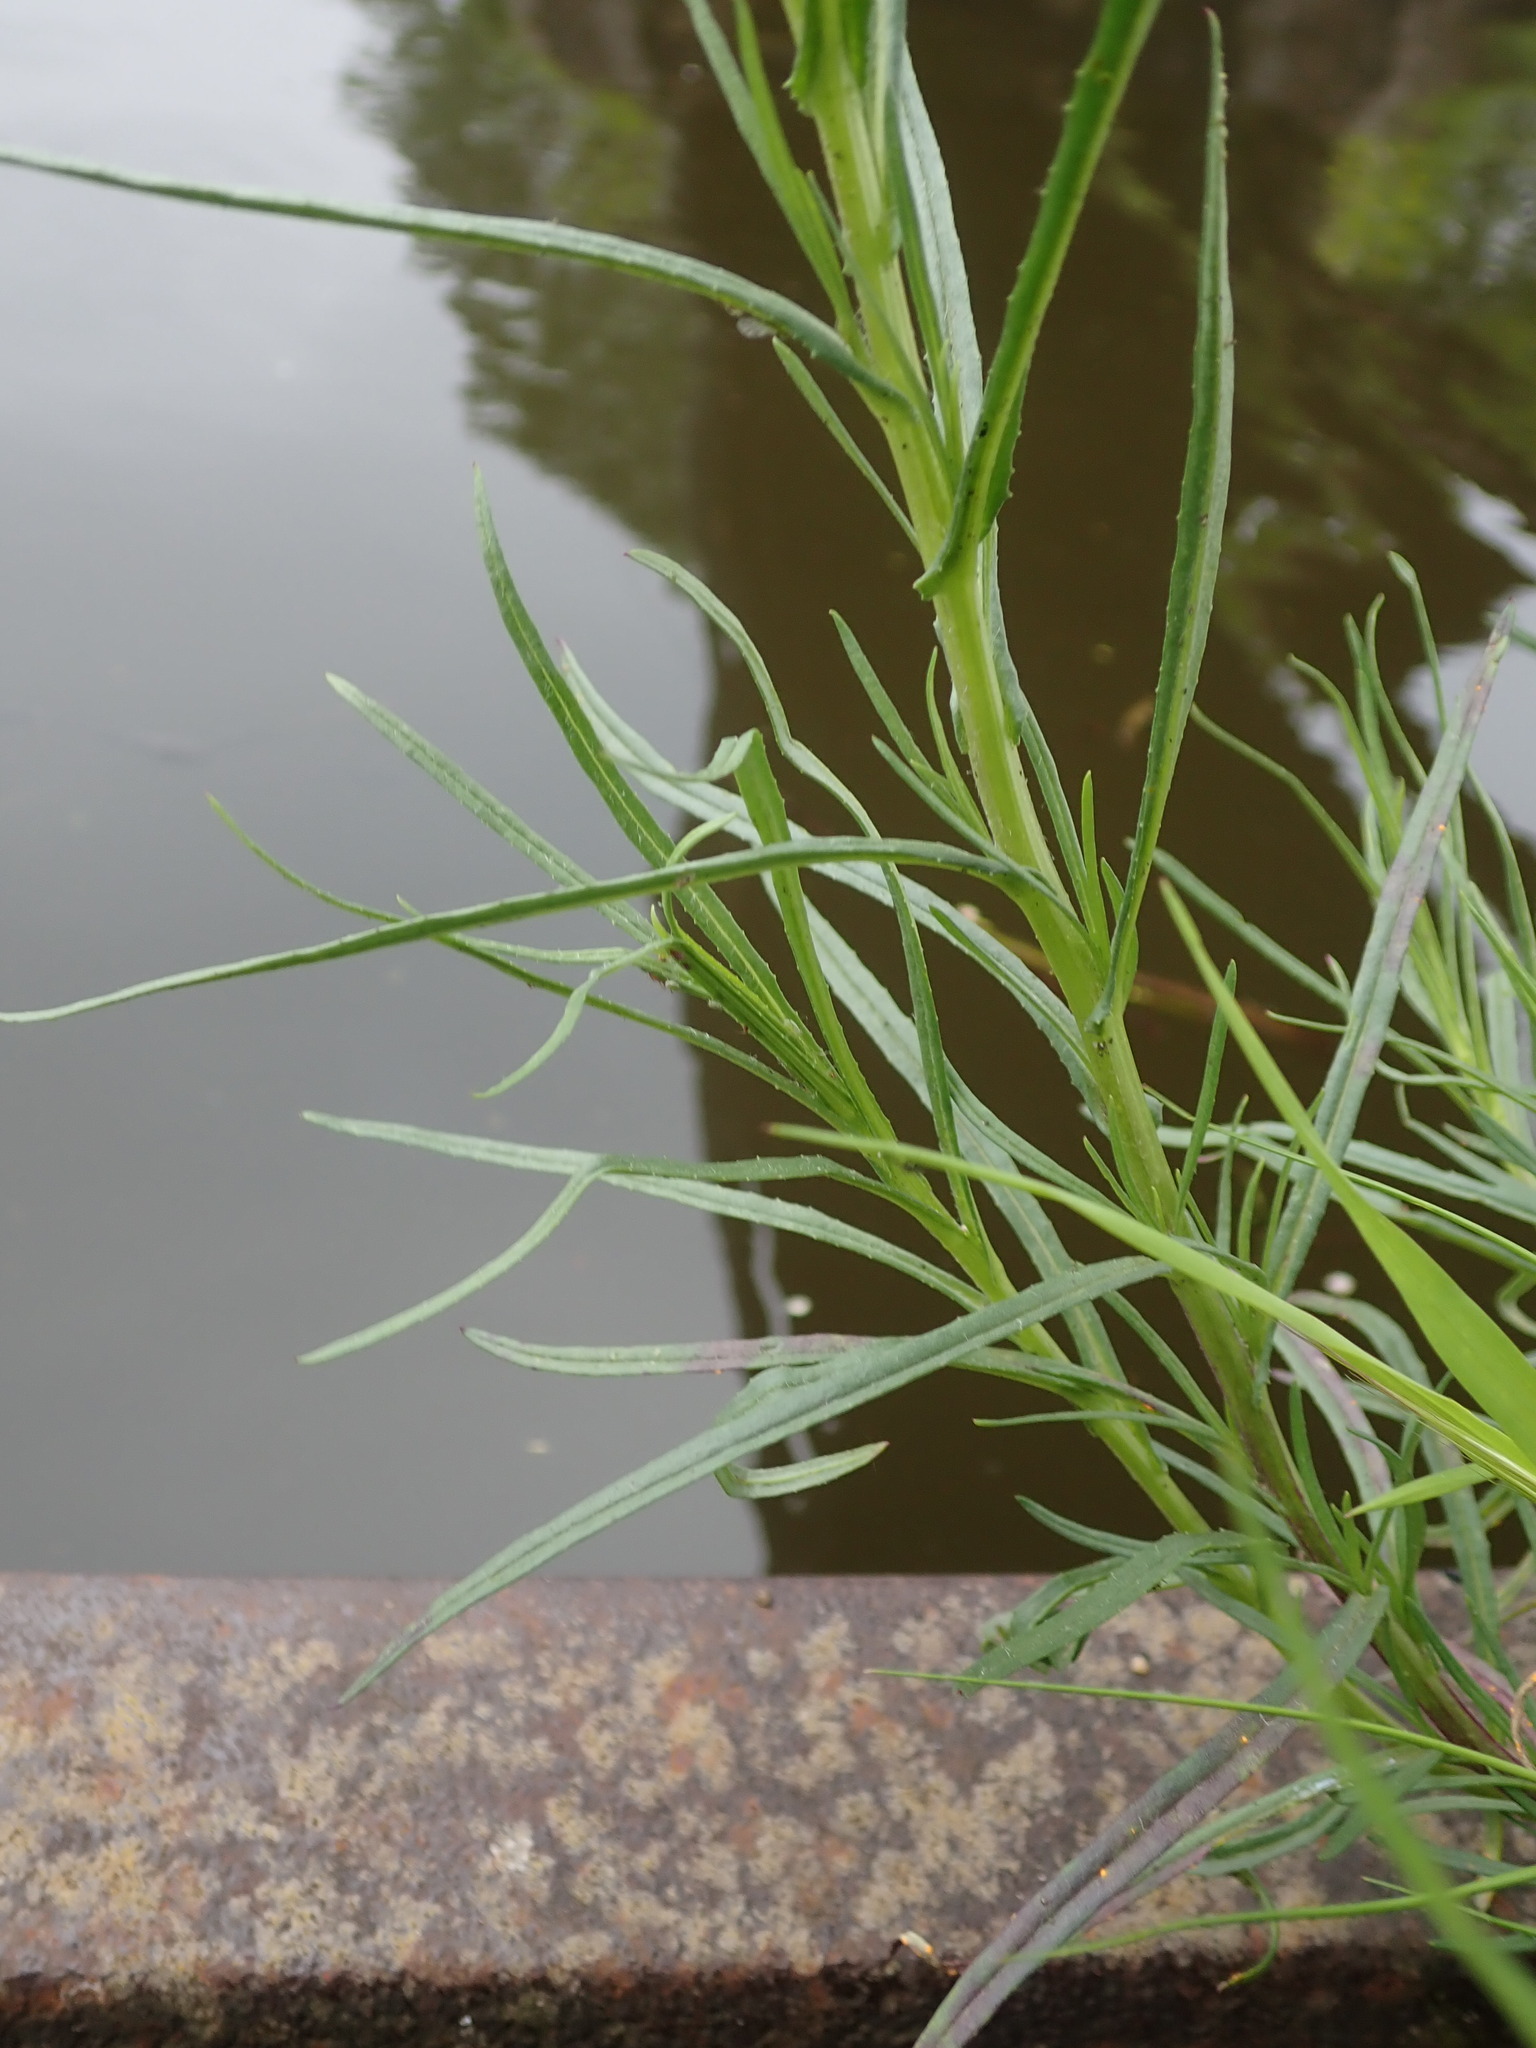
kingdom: Plantae
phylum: Tracheophyta
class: Magnoliopsida
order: Asterales
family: Asteraceae
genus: Senecio
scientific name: Senecio inaequidens
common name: Narrow-leaved ragwort
